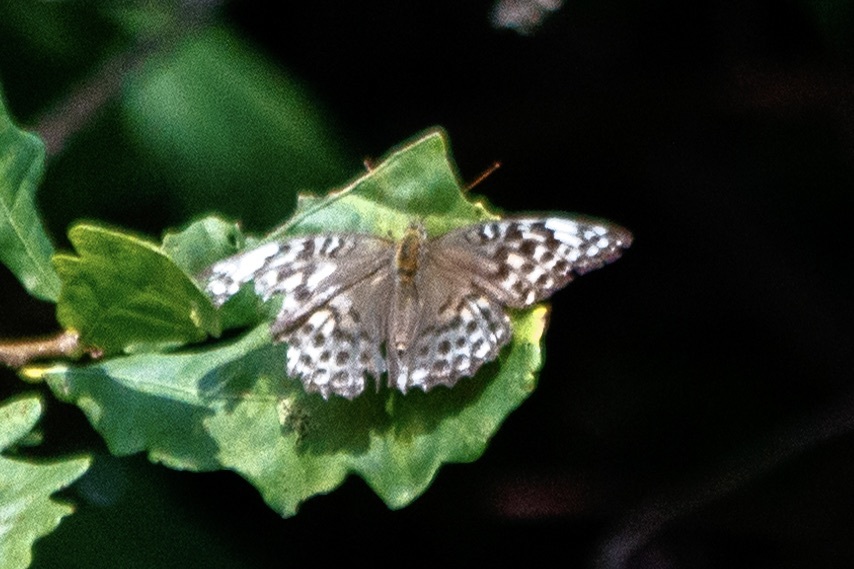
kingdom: Animalia
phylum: Arthropoda
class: Insecta
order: Lepidoptera
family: Nymphalidae
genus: Argynnis
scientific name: Argynnis paphia
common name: Silver-washed fritillary
